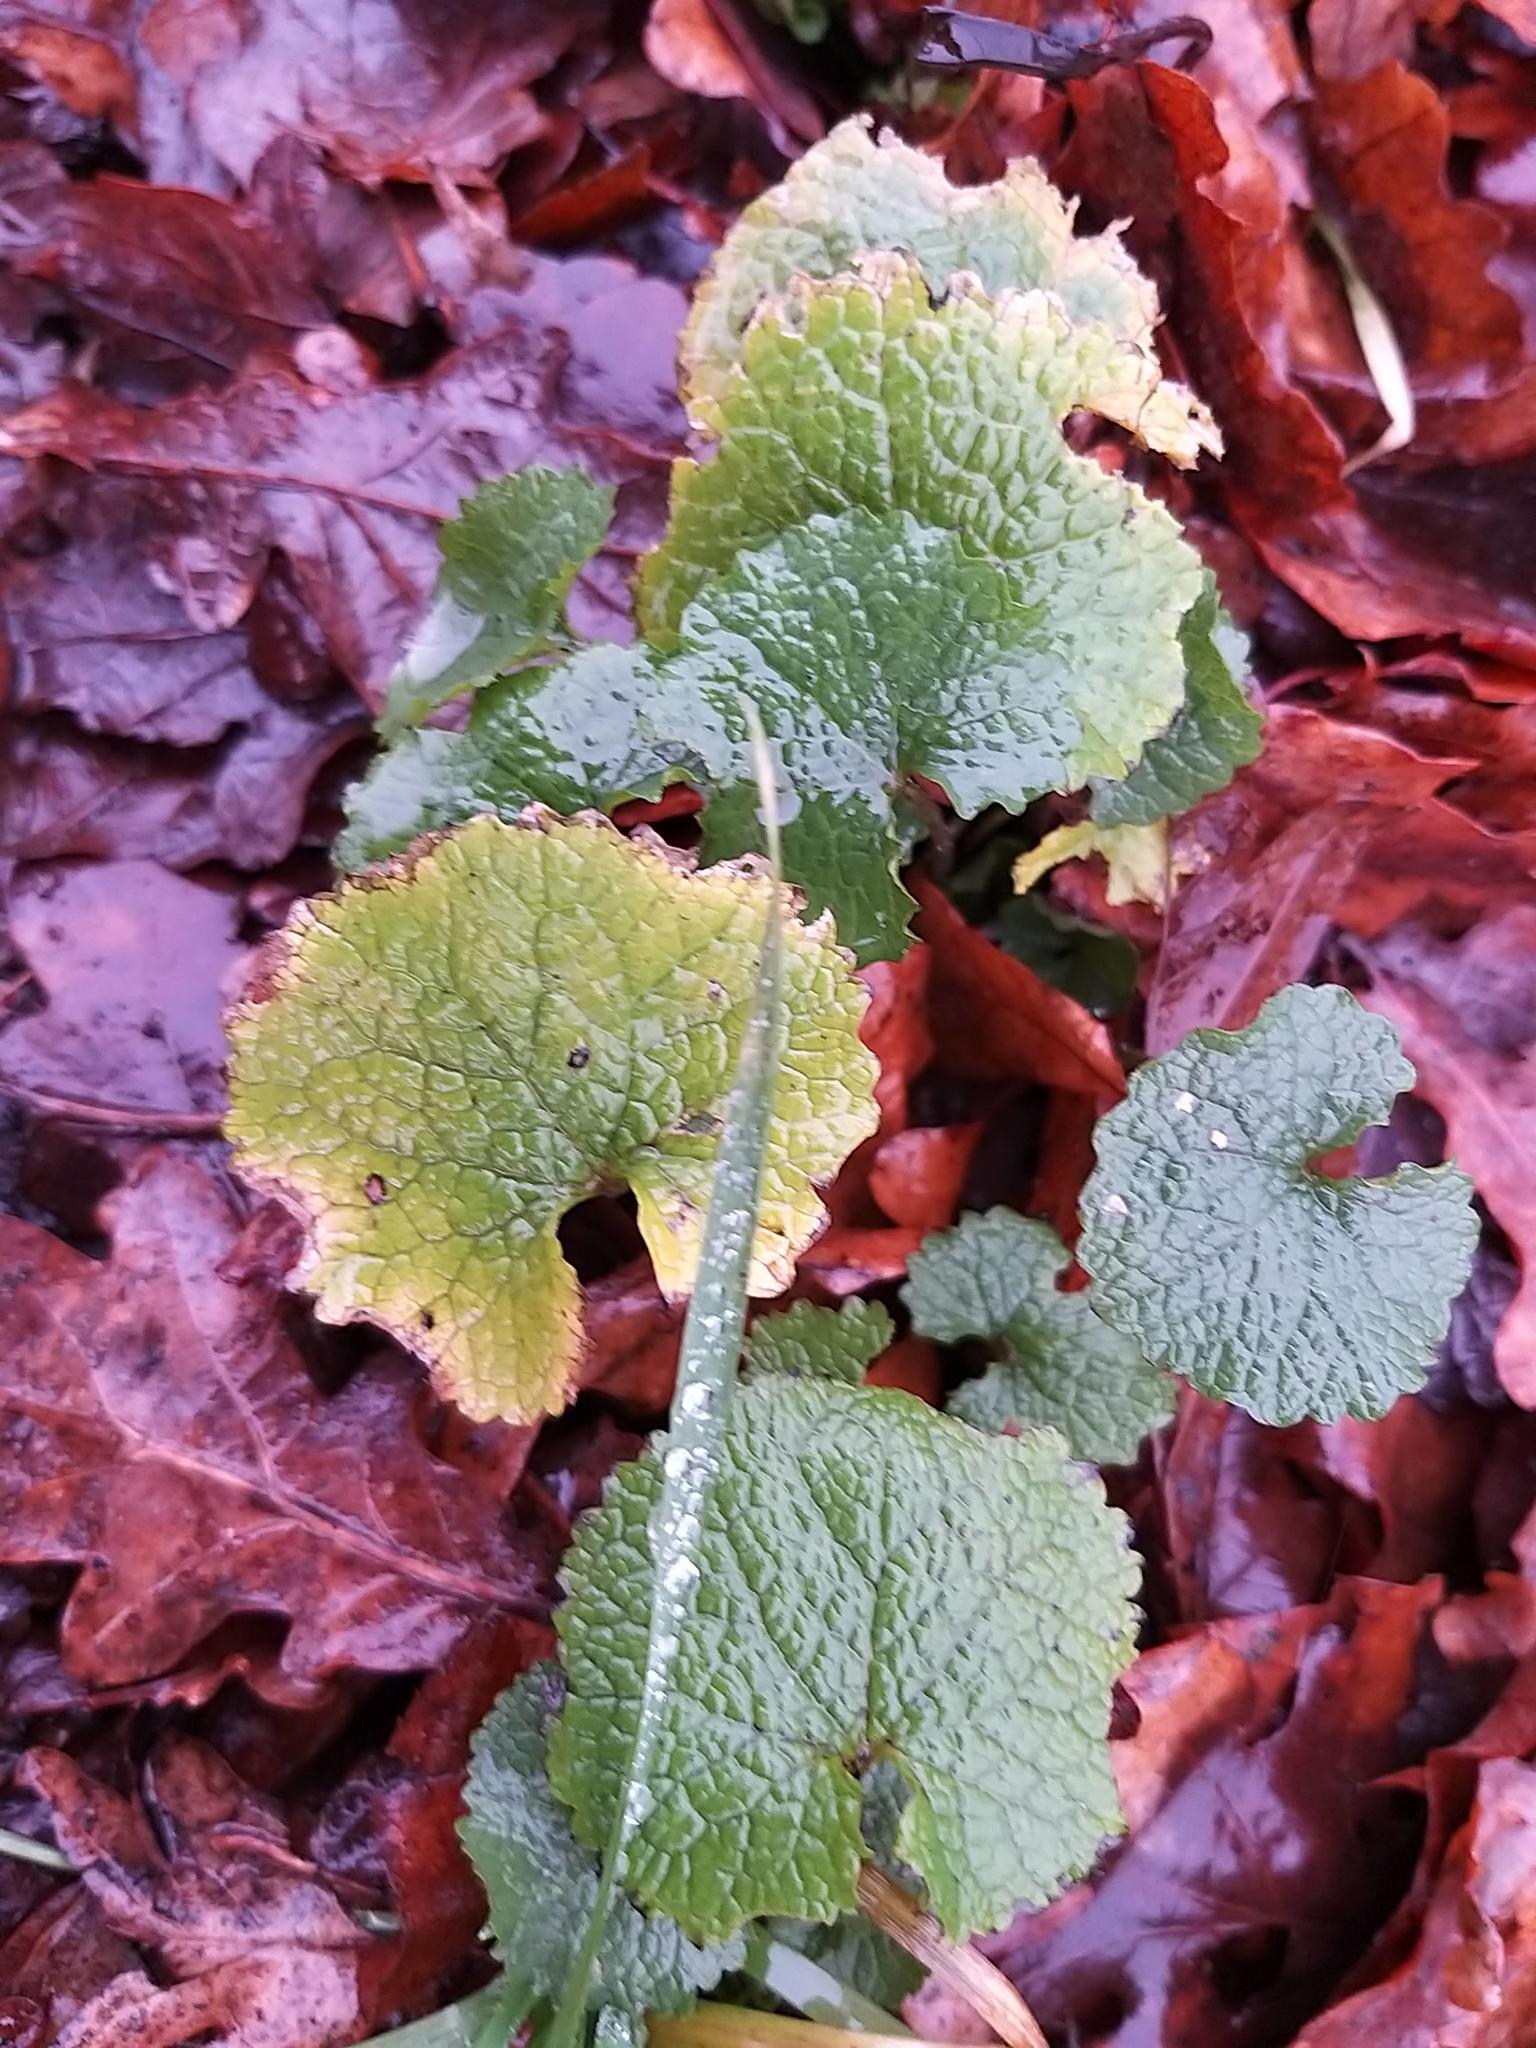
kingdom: Plantae
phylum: Tracheophyta
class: Magnoliopsida
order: Brassicales
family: Brassicaceae
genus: Alliaria
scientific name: Alliaria petiolata
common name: Garlic mustard
